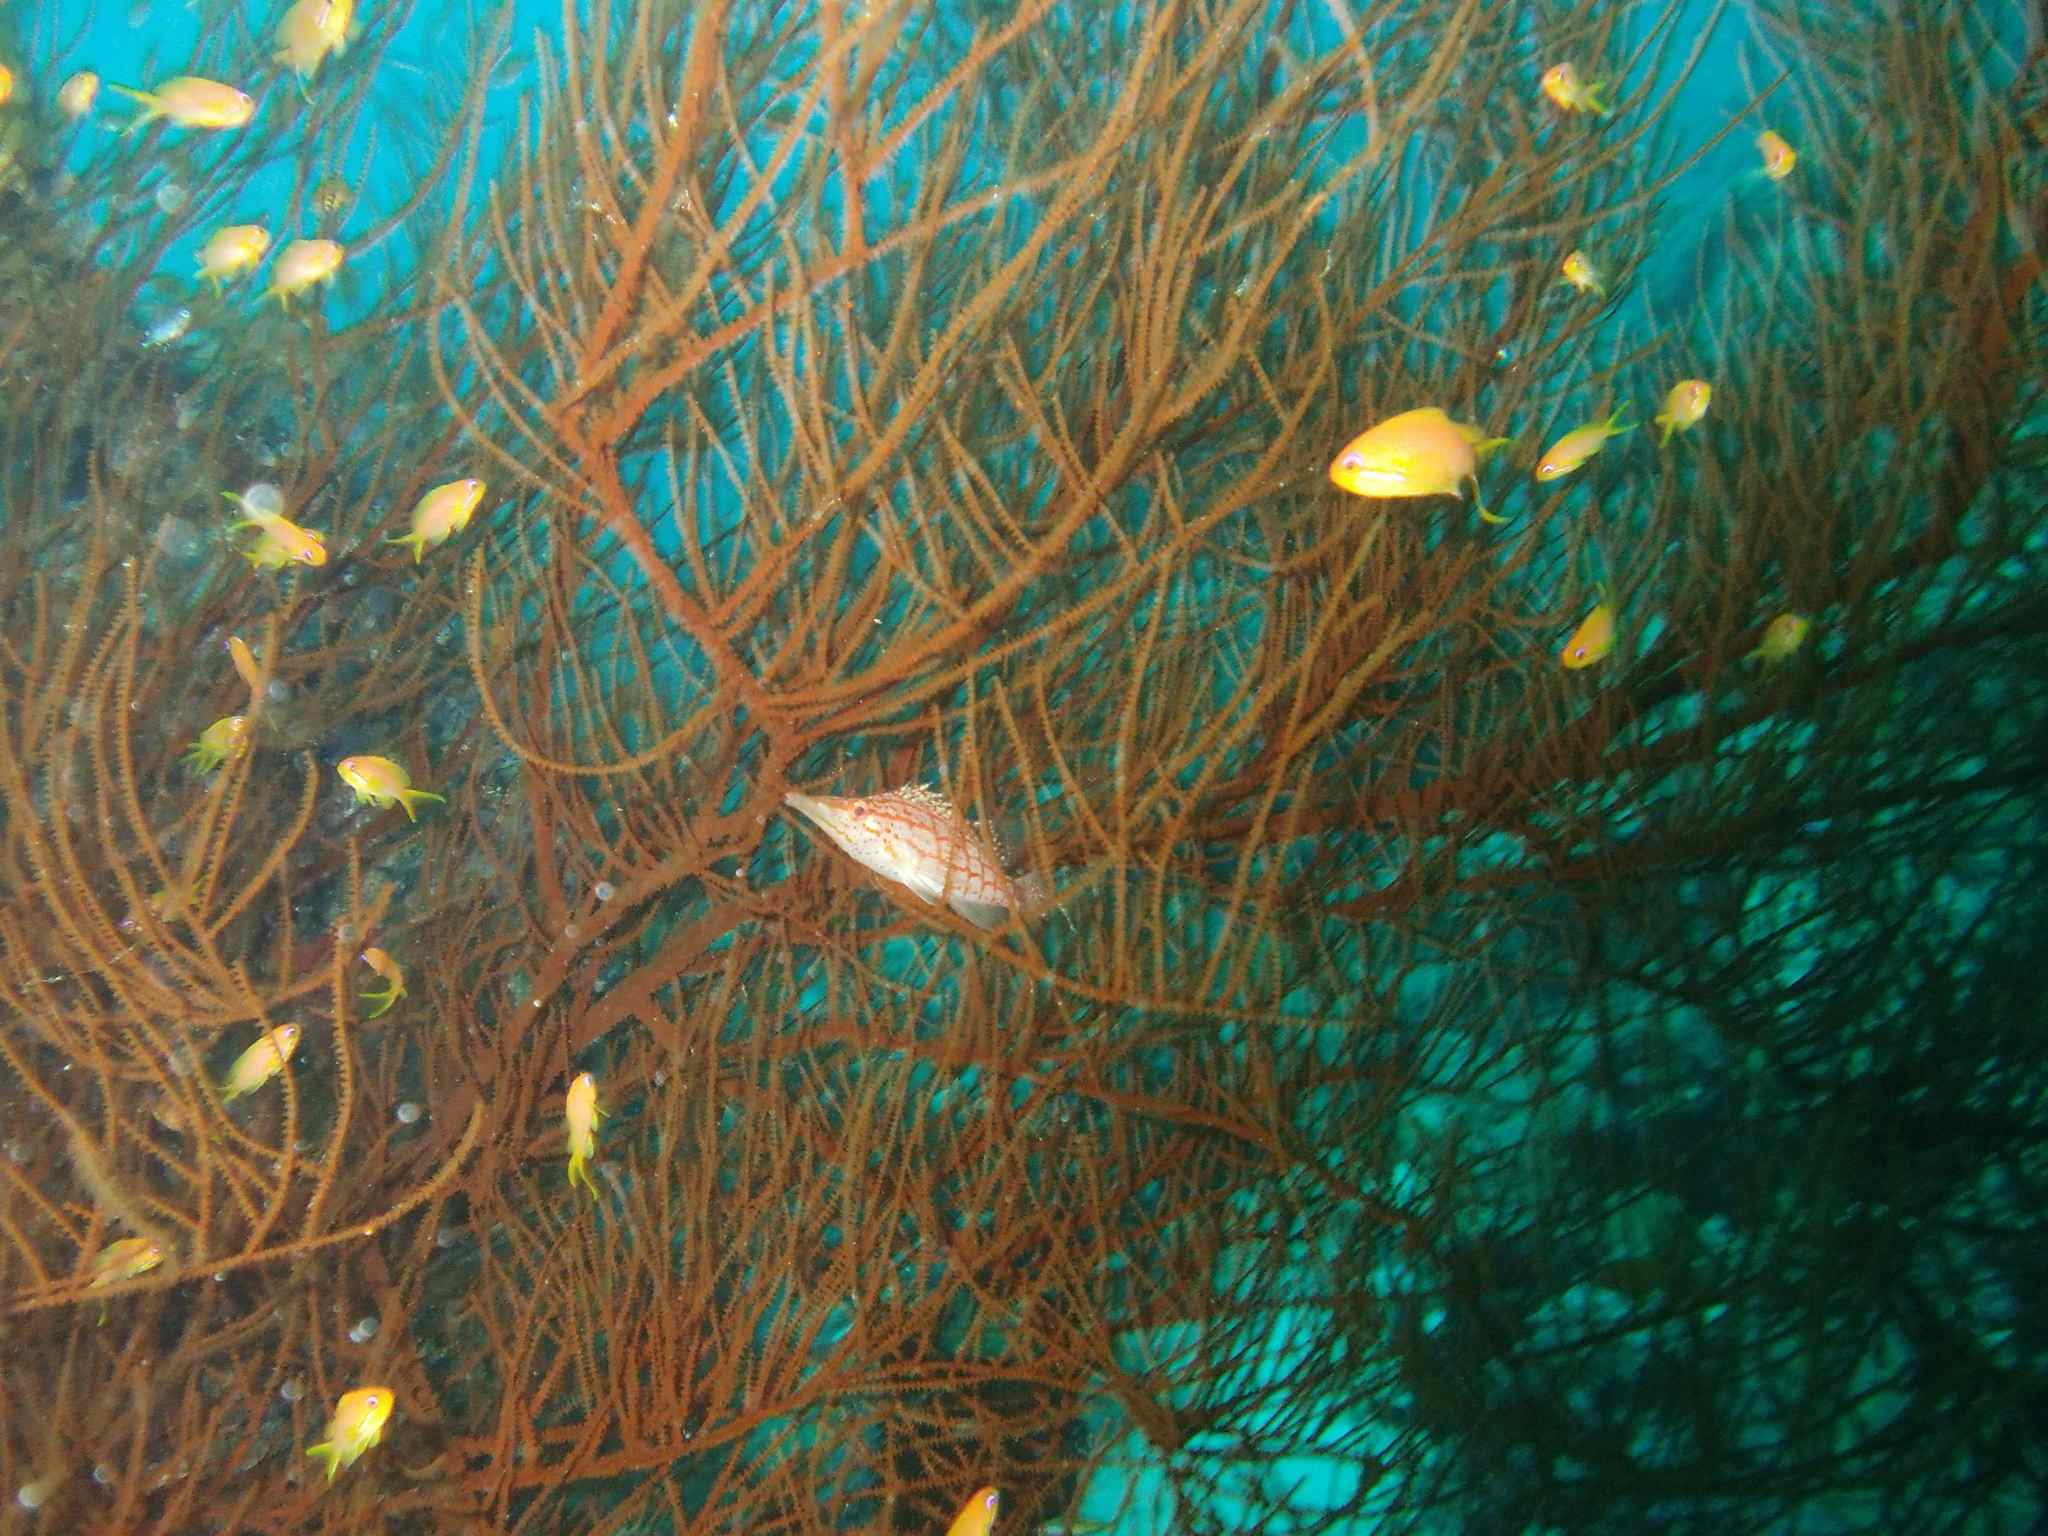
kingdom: Animalia
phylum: Chordata
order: Perciformes
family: Cirrhitidae
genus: Oxycirrhites
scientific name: Oxycirrhites typus
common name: Longnose hawkfish
